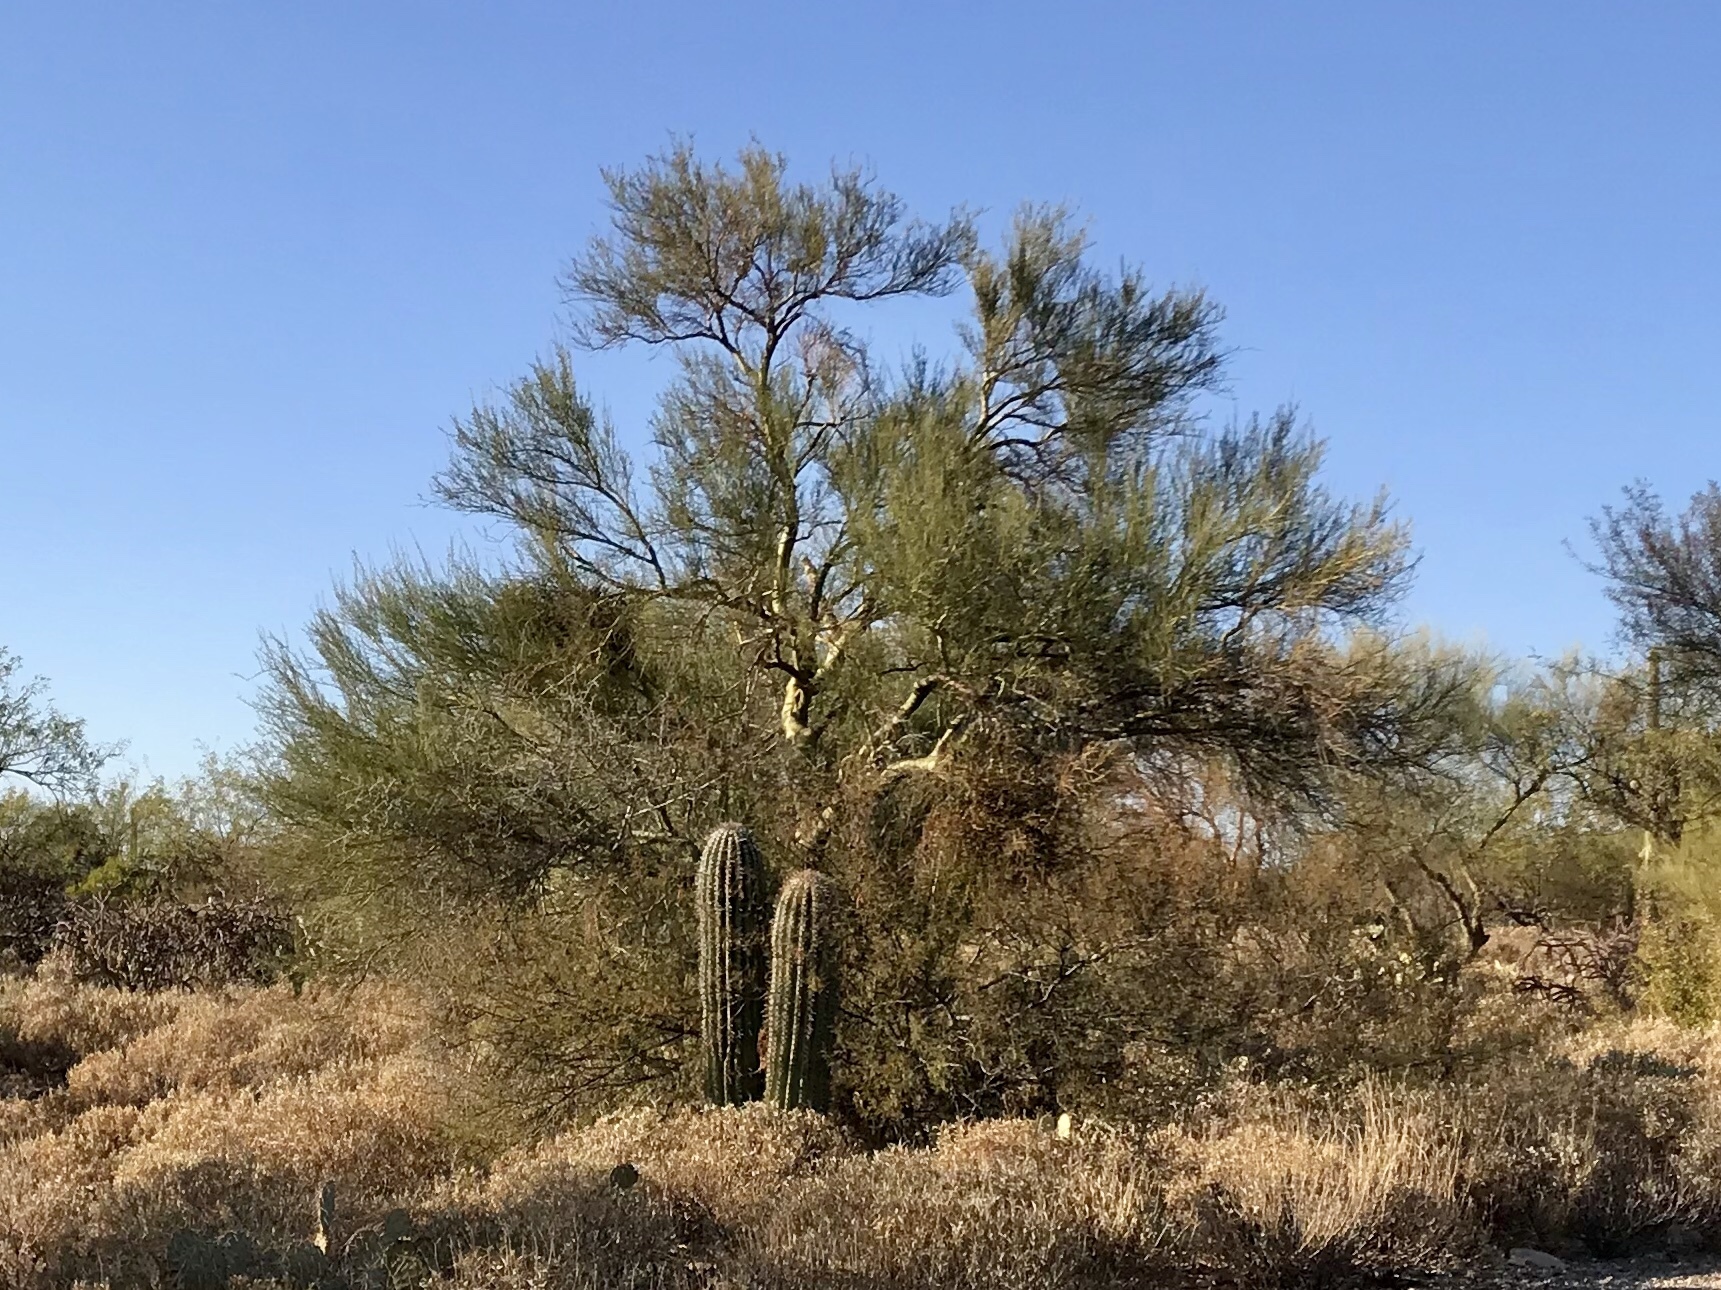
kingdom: Plantae
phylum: Tracheophyta
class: Magnoliopsida
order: Fabales
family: Fabaceae
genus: Parkinsonia
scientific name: Parkinsonia microphylla
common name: Yellow paloverde
